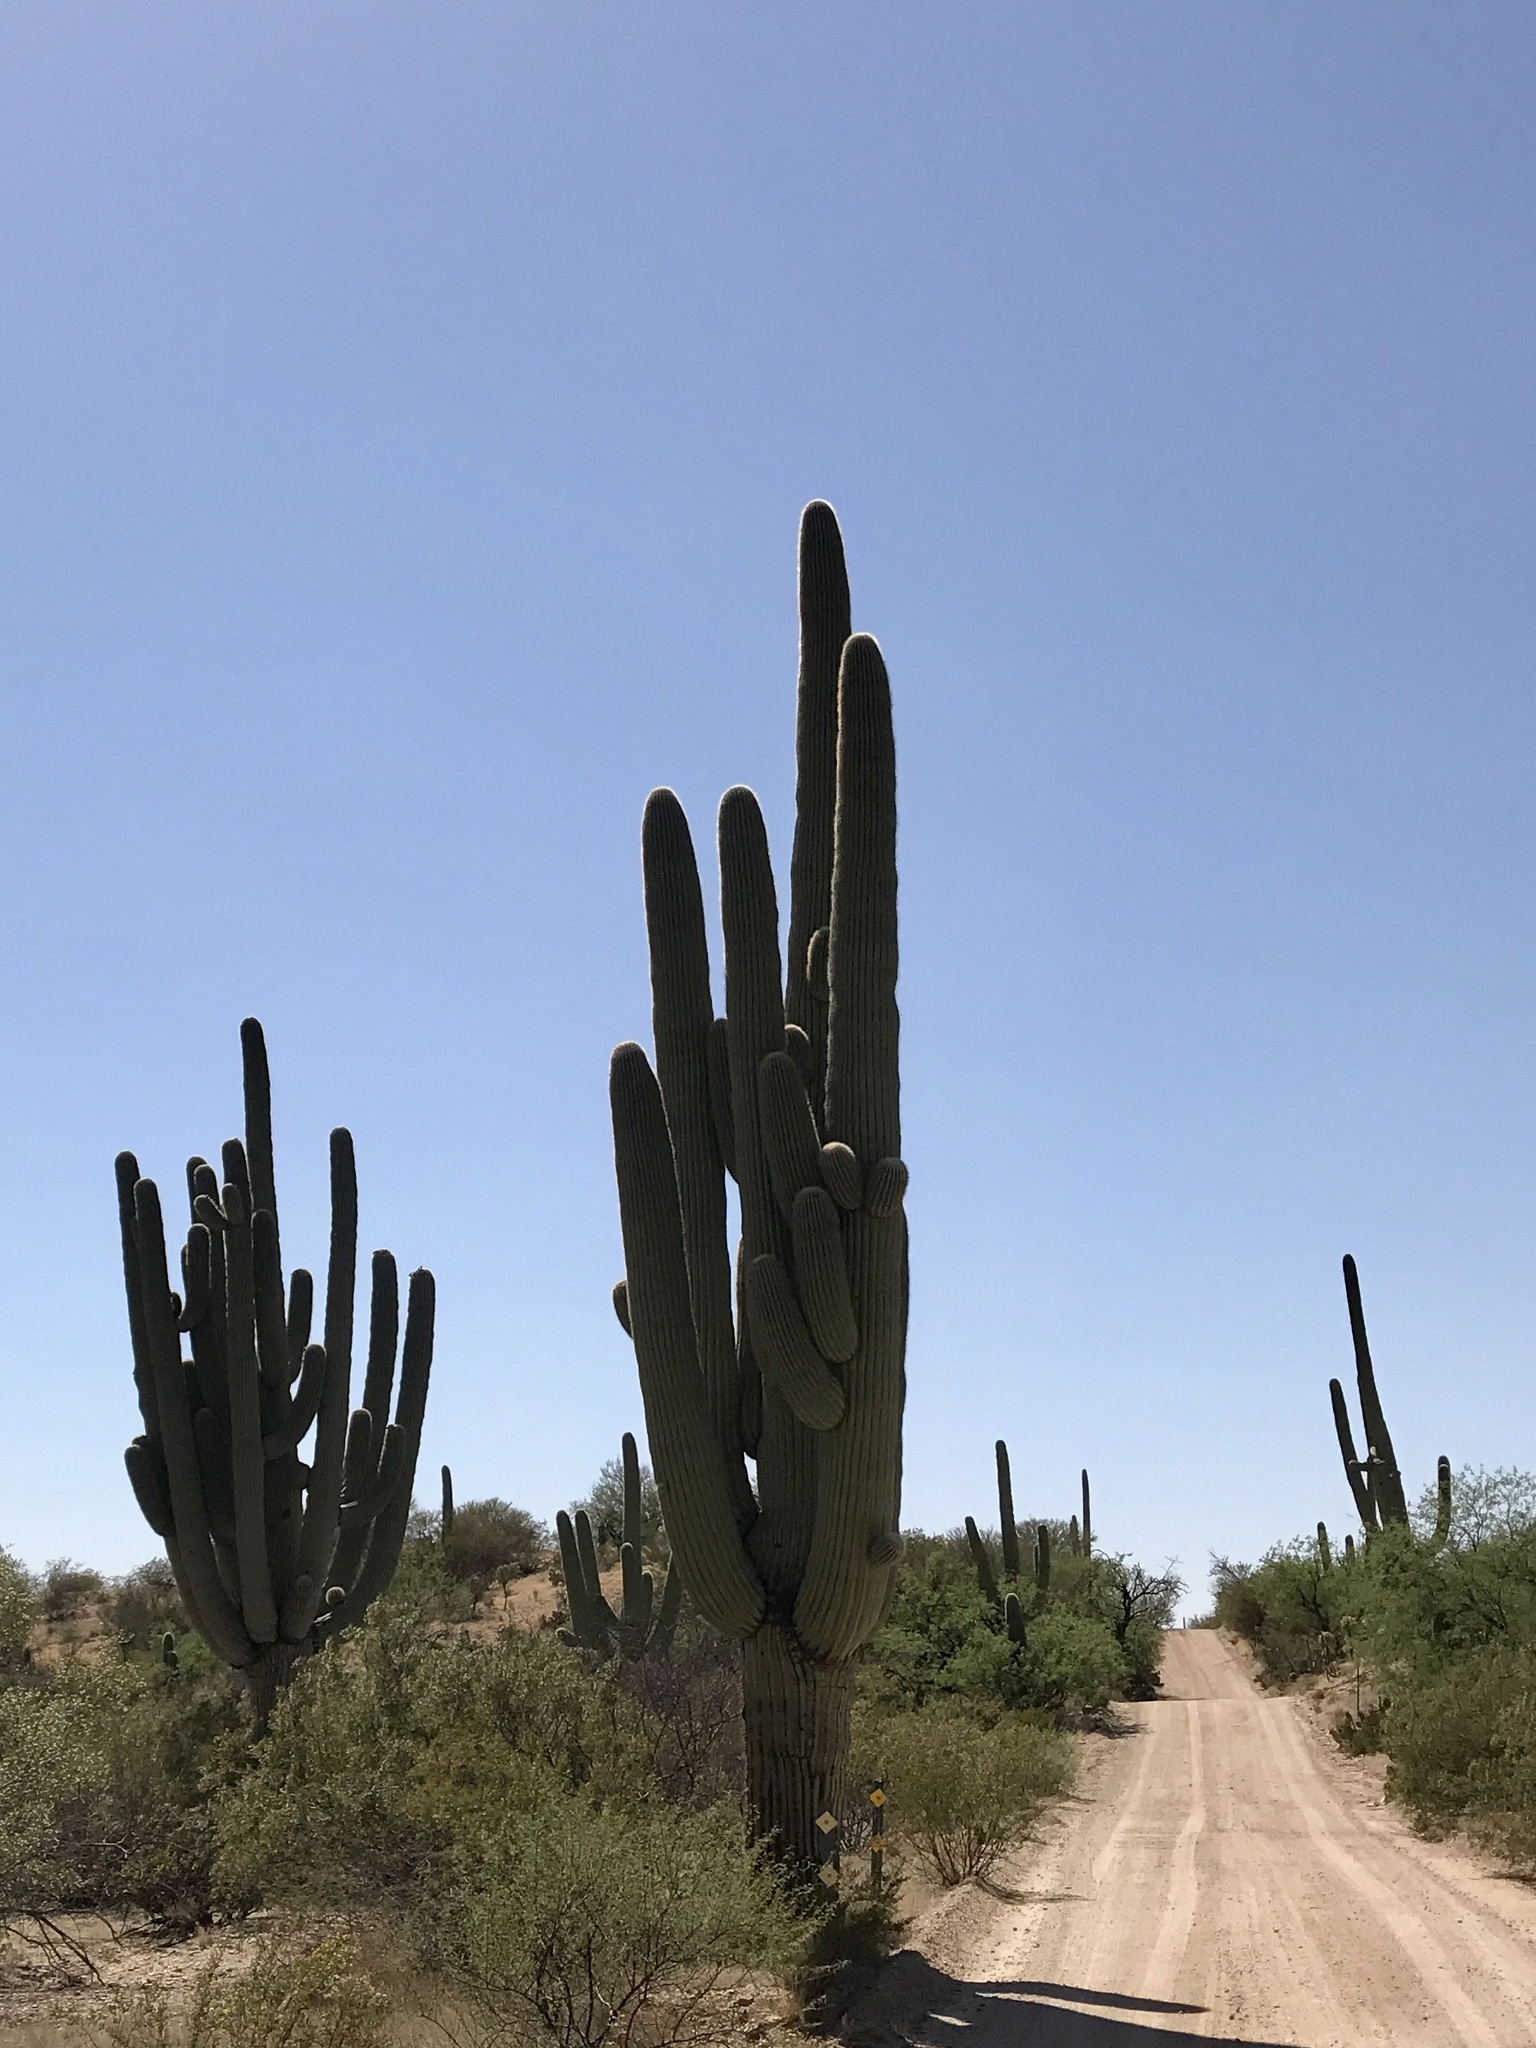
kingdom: Plantae
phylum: Tracheophyta
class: Magnoliopsida
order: Caryophyllales
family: Cactaceae
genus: Carnegiea
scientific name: Carnegiea gigantea
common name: Saguaro
